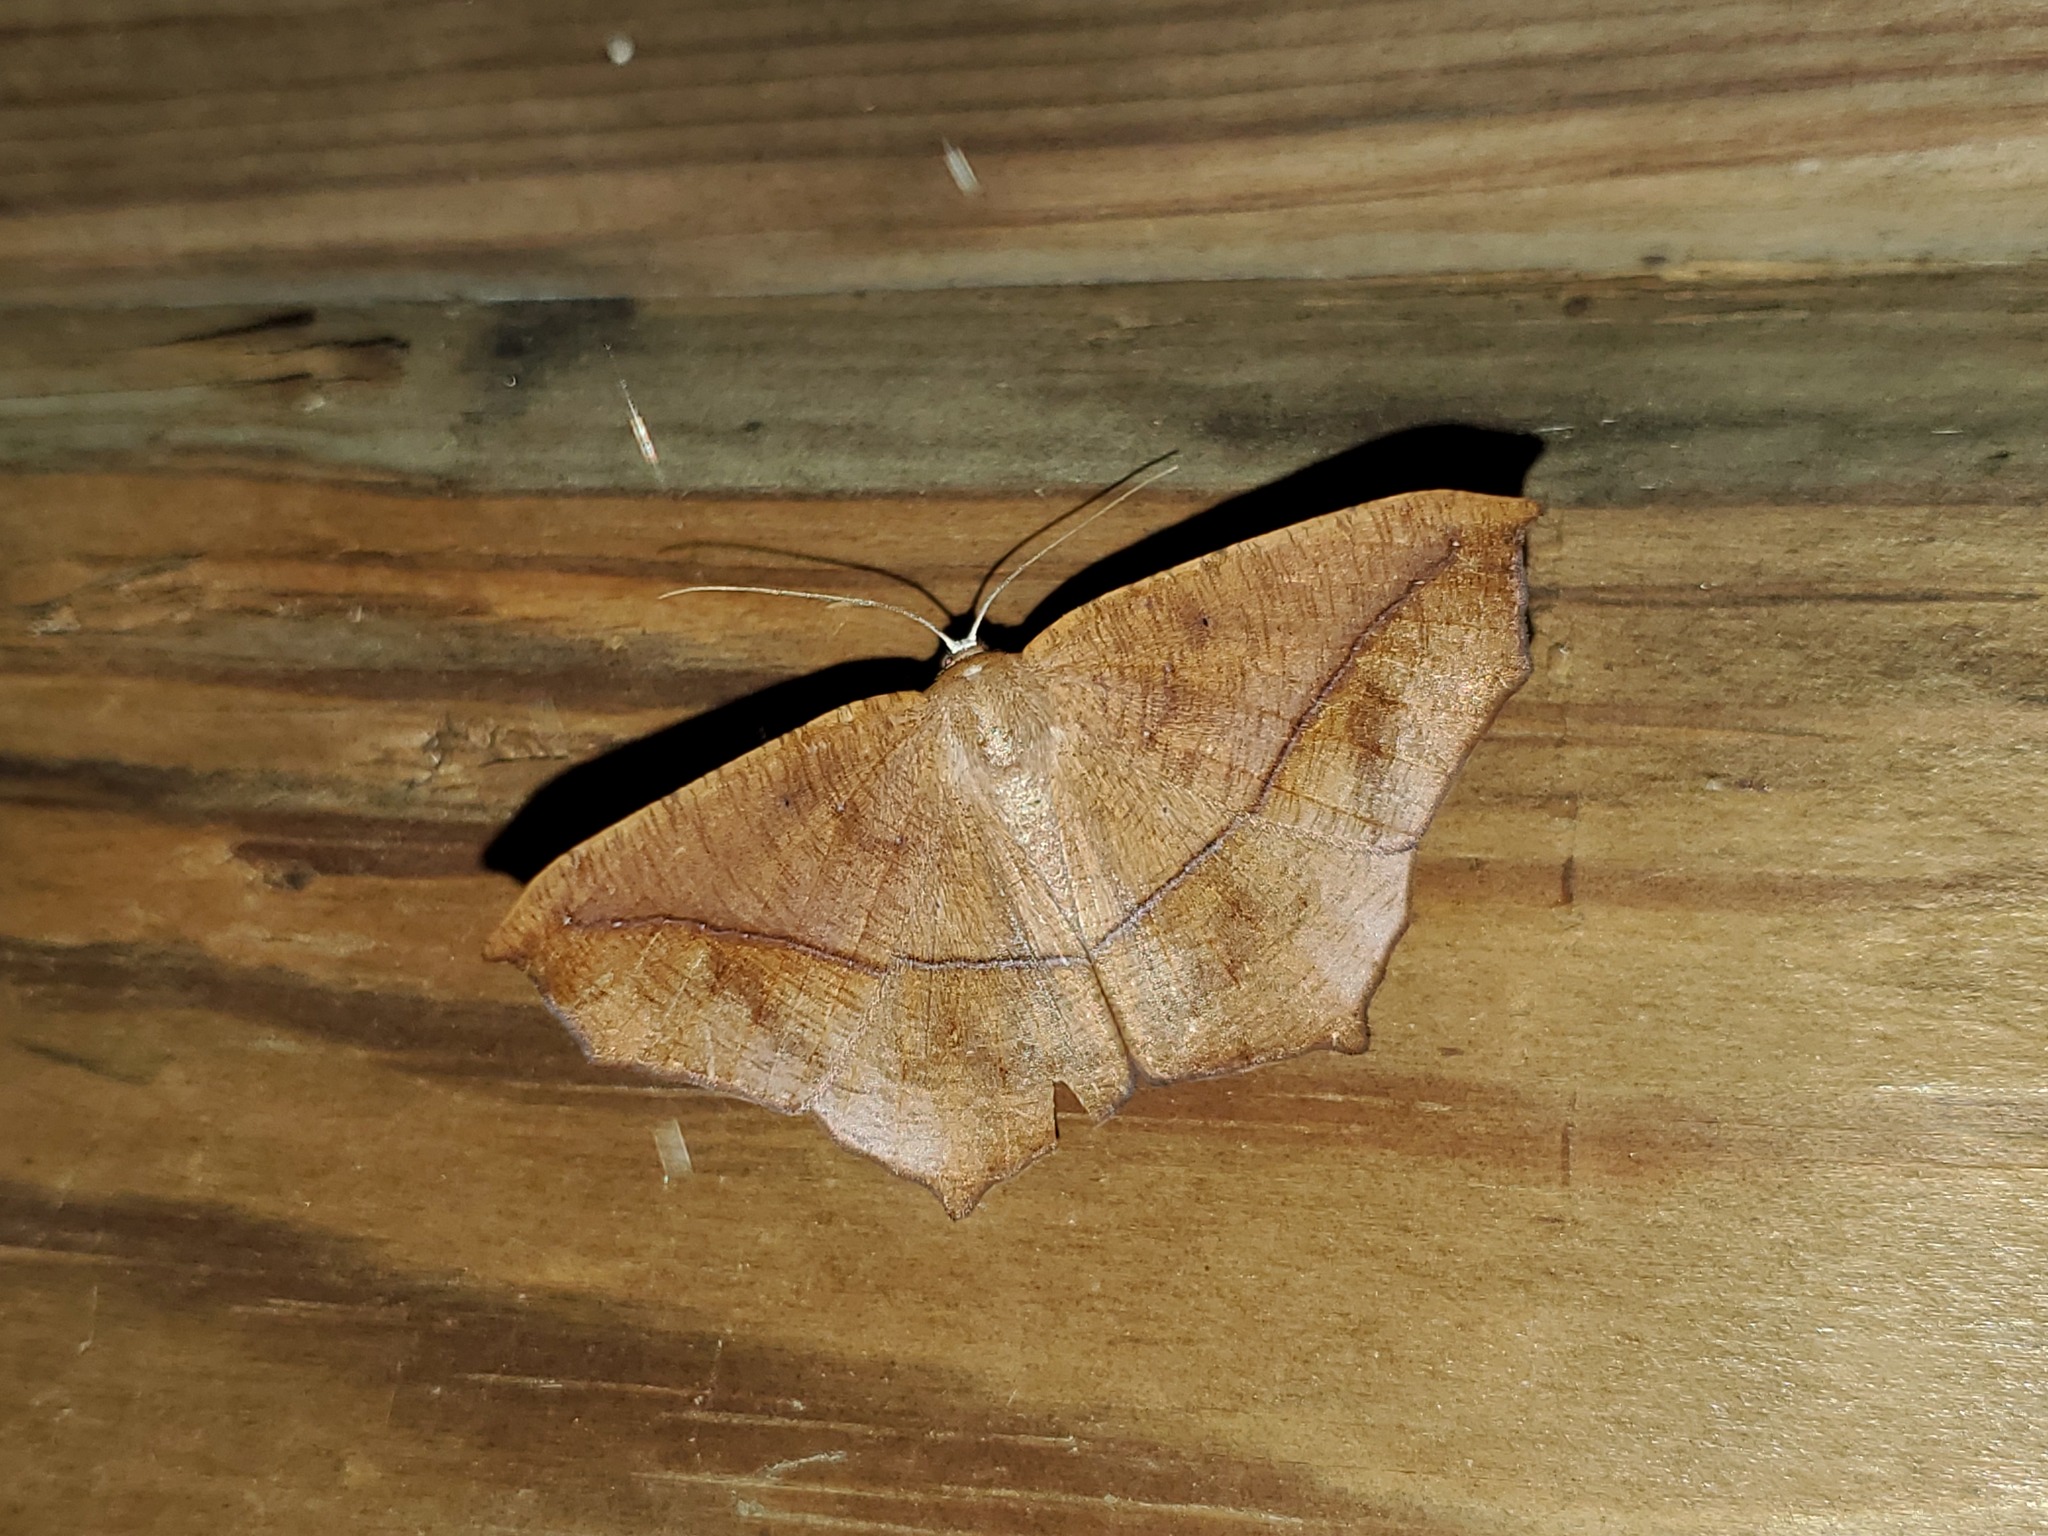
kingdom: Animalia
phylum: Arthropoda
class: Insecta
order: Lepidoptera
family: Geometridae
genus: Prochoerodes
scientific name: Prochoerodes lineola
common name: Large maple spanworm
